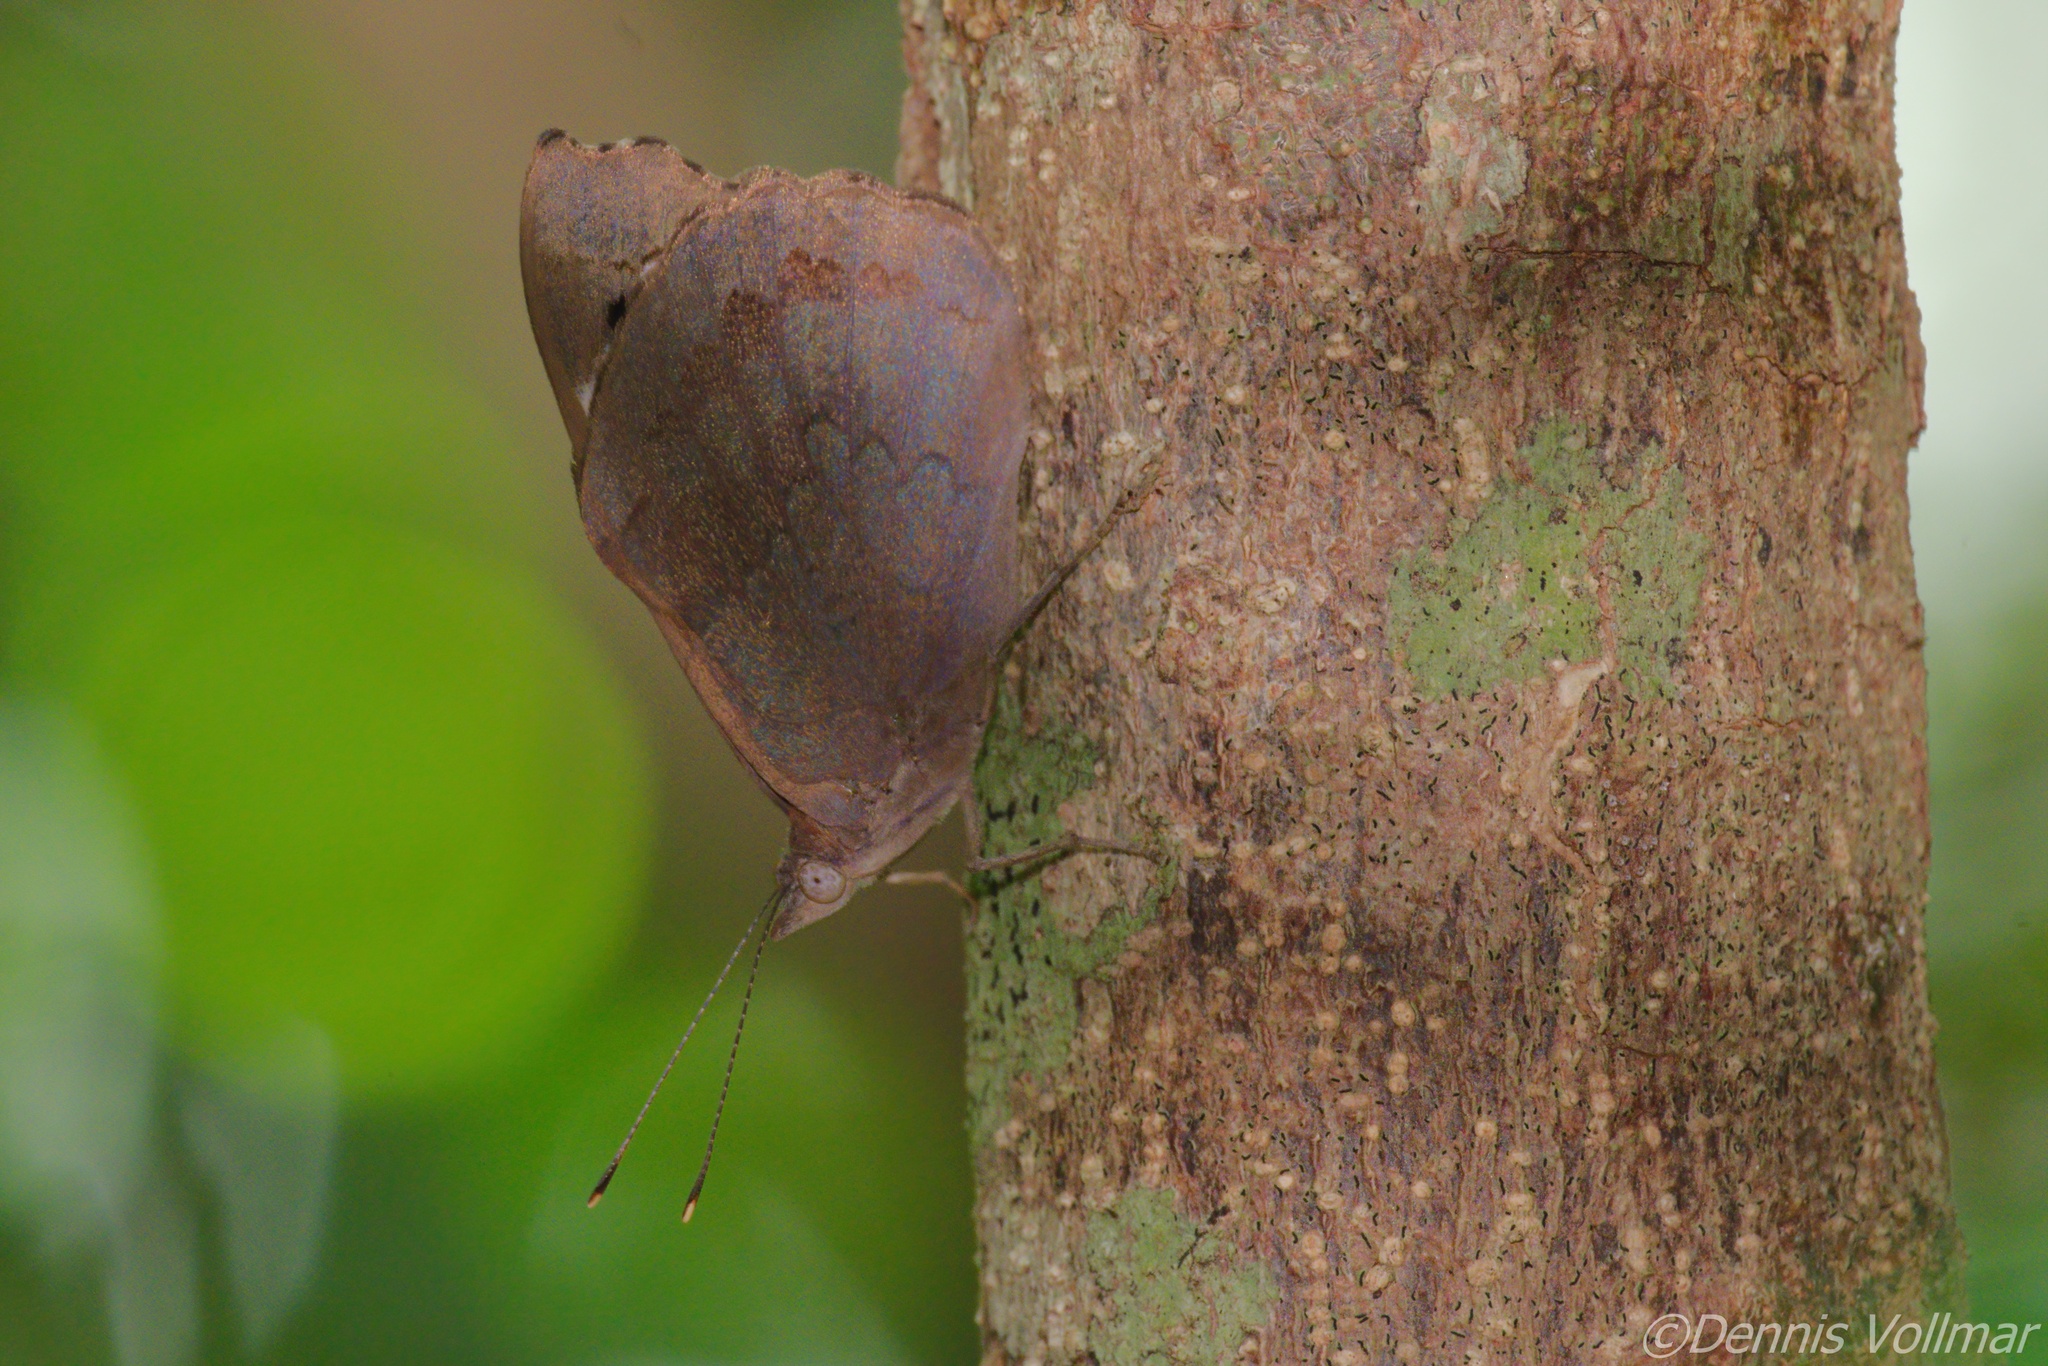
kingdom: Animalia
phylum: Arthropoda
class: Insecta
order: Lepidoptera
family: Nymphalidae
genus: Eunica
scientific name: Eunica tatila
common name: Florida purplewing
